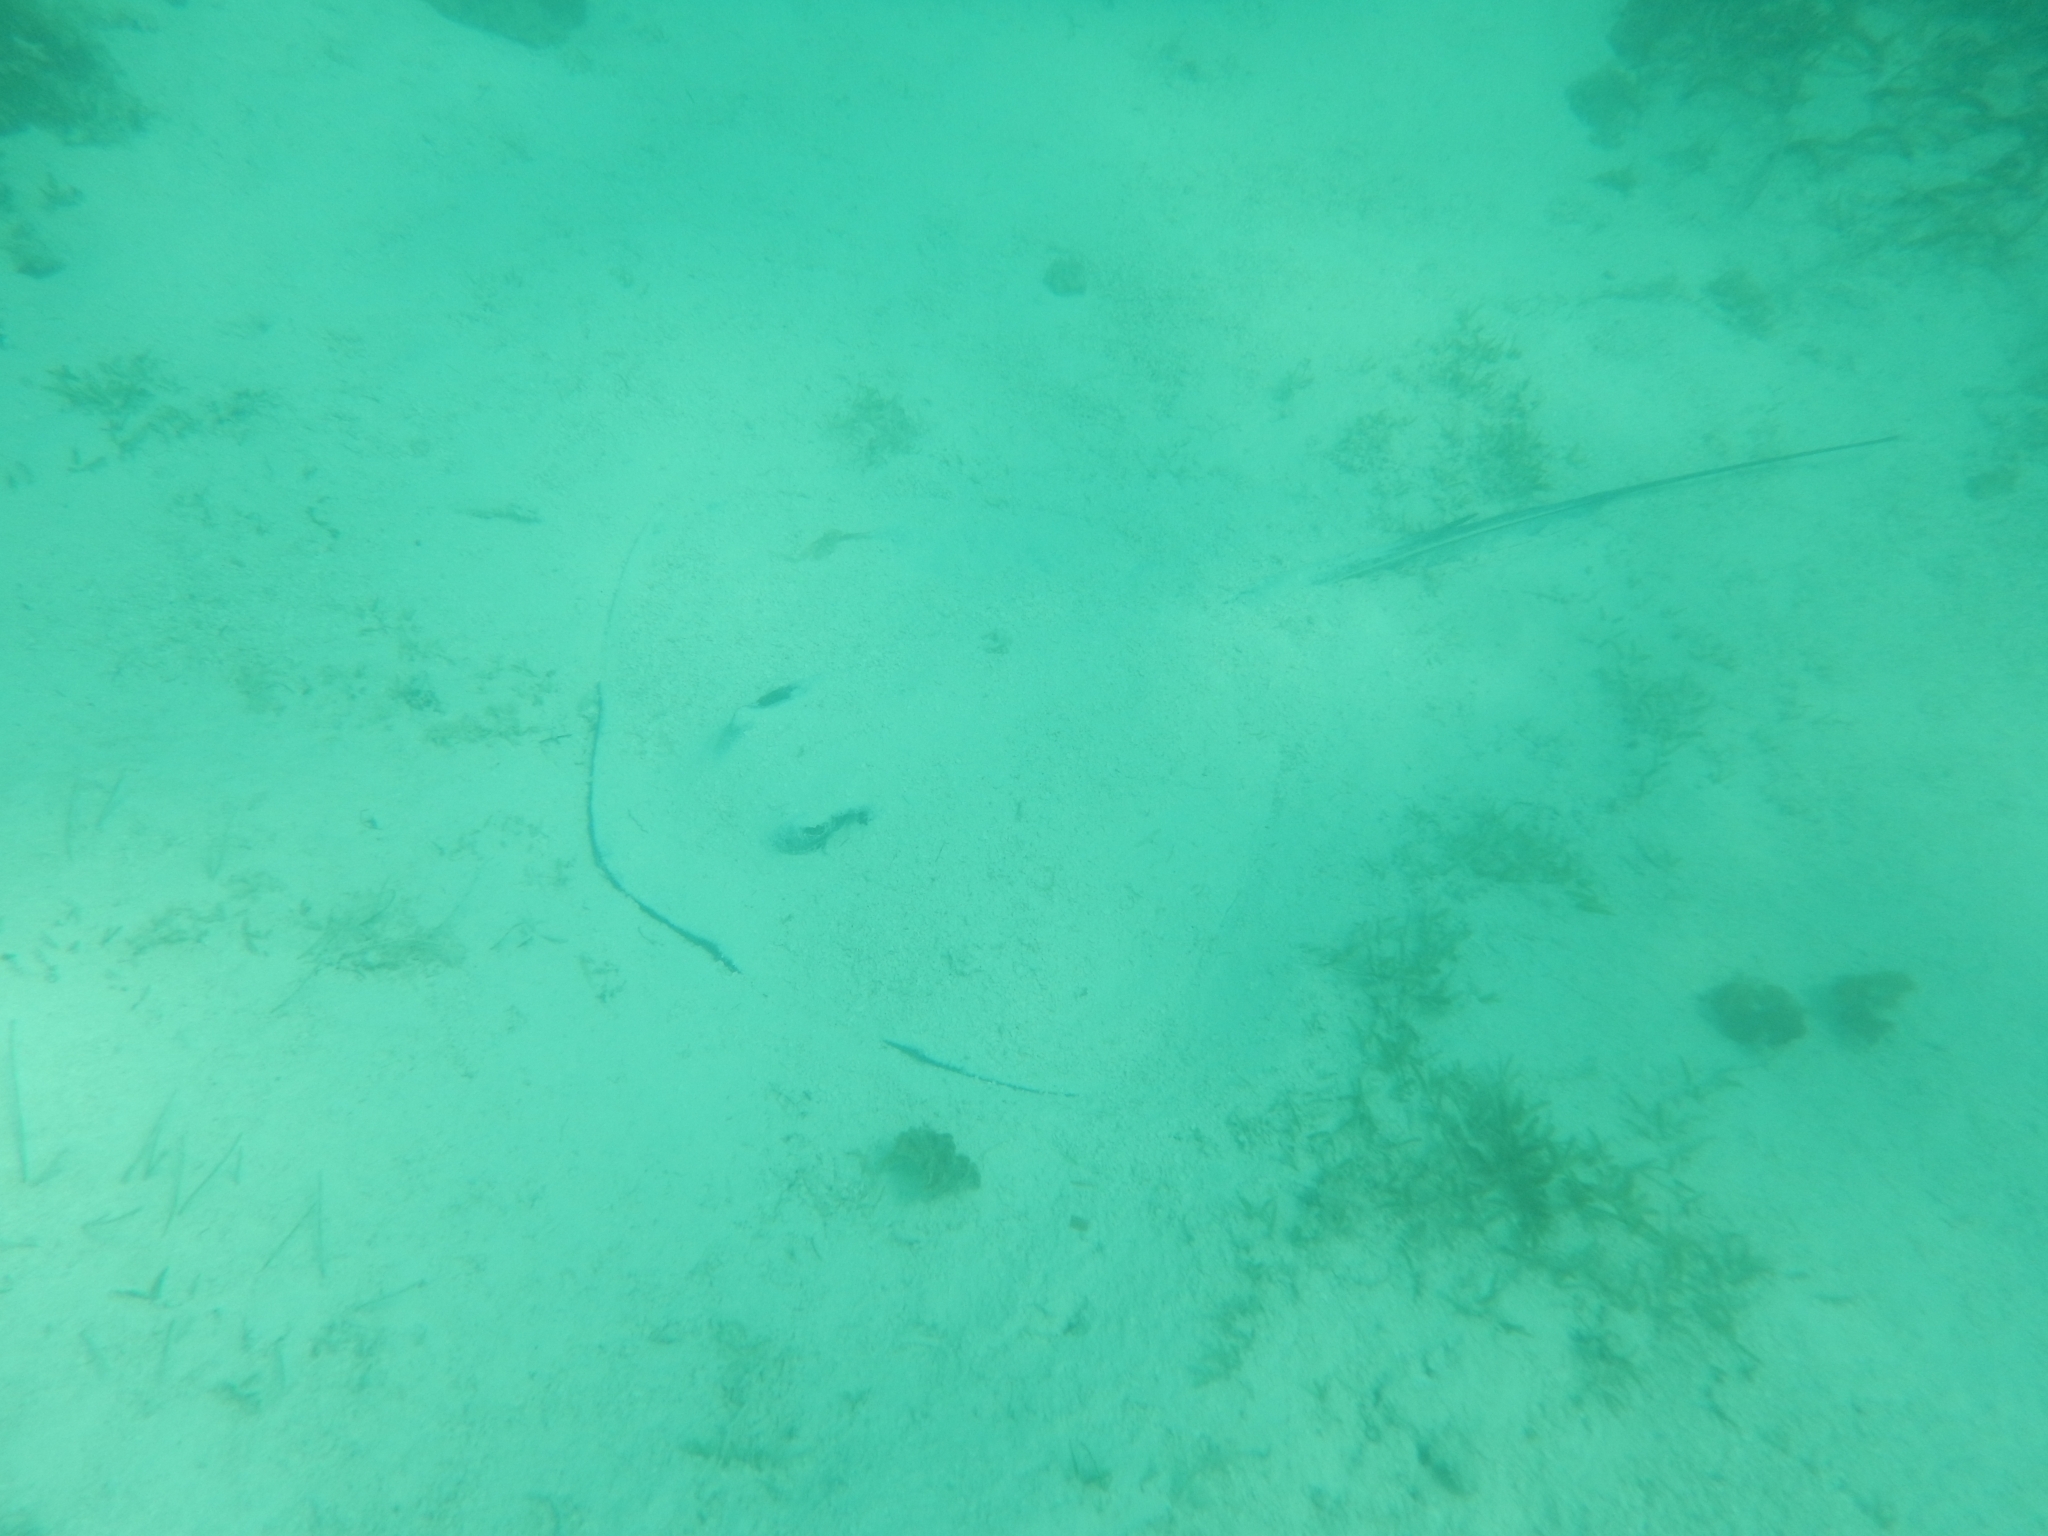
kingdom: Animalia
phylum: Chordata
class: Elasmobranchii
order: Myliobatiformes
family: Dasyatidae
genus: Hypanus
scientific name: Hypanus americanus
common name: Southern stingray
